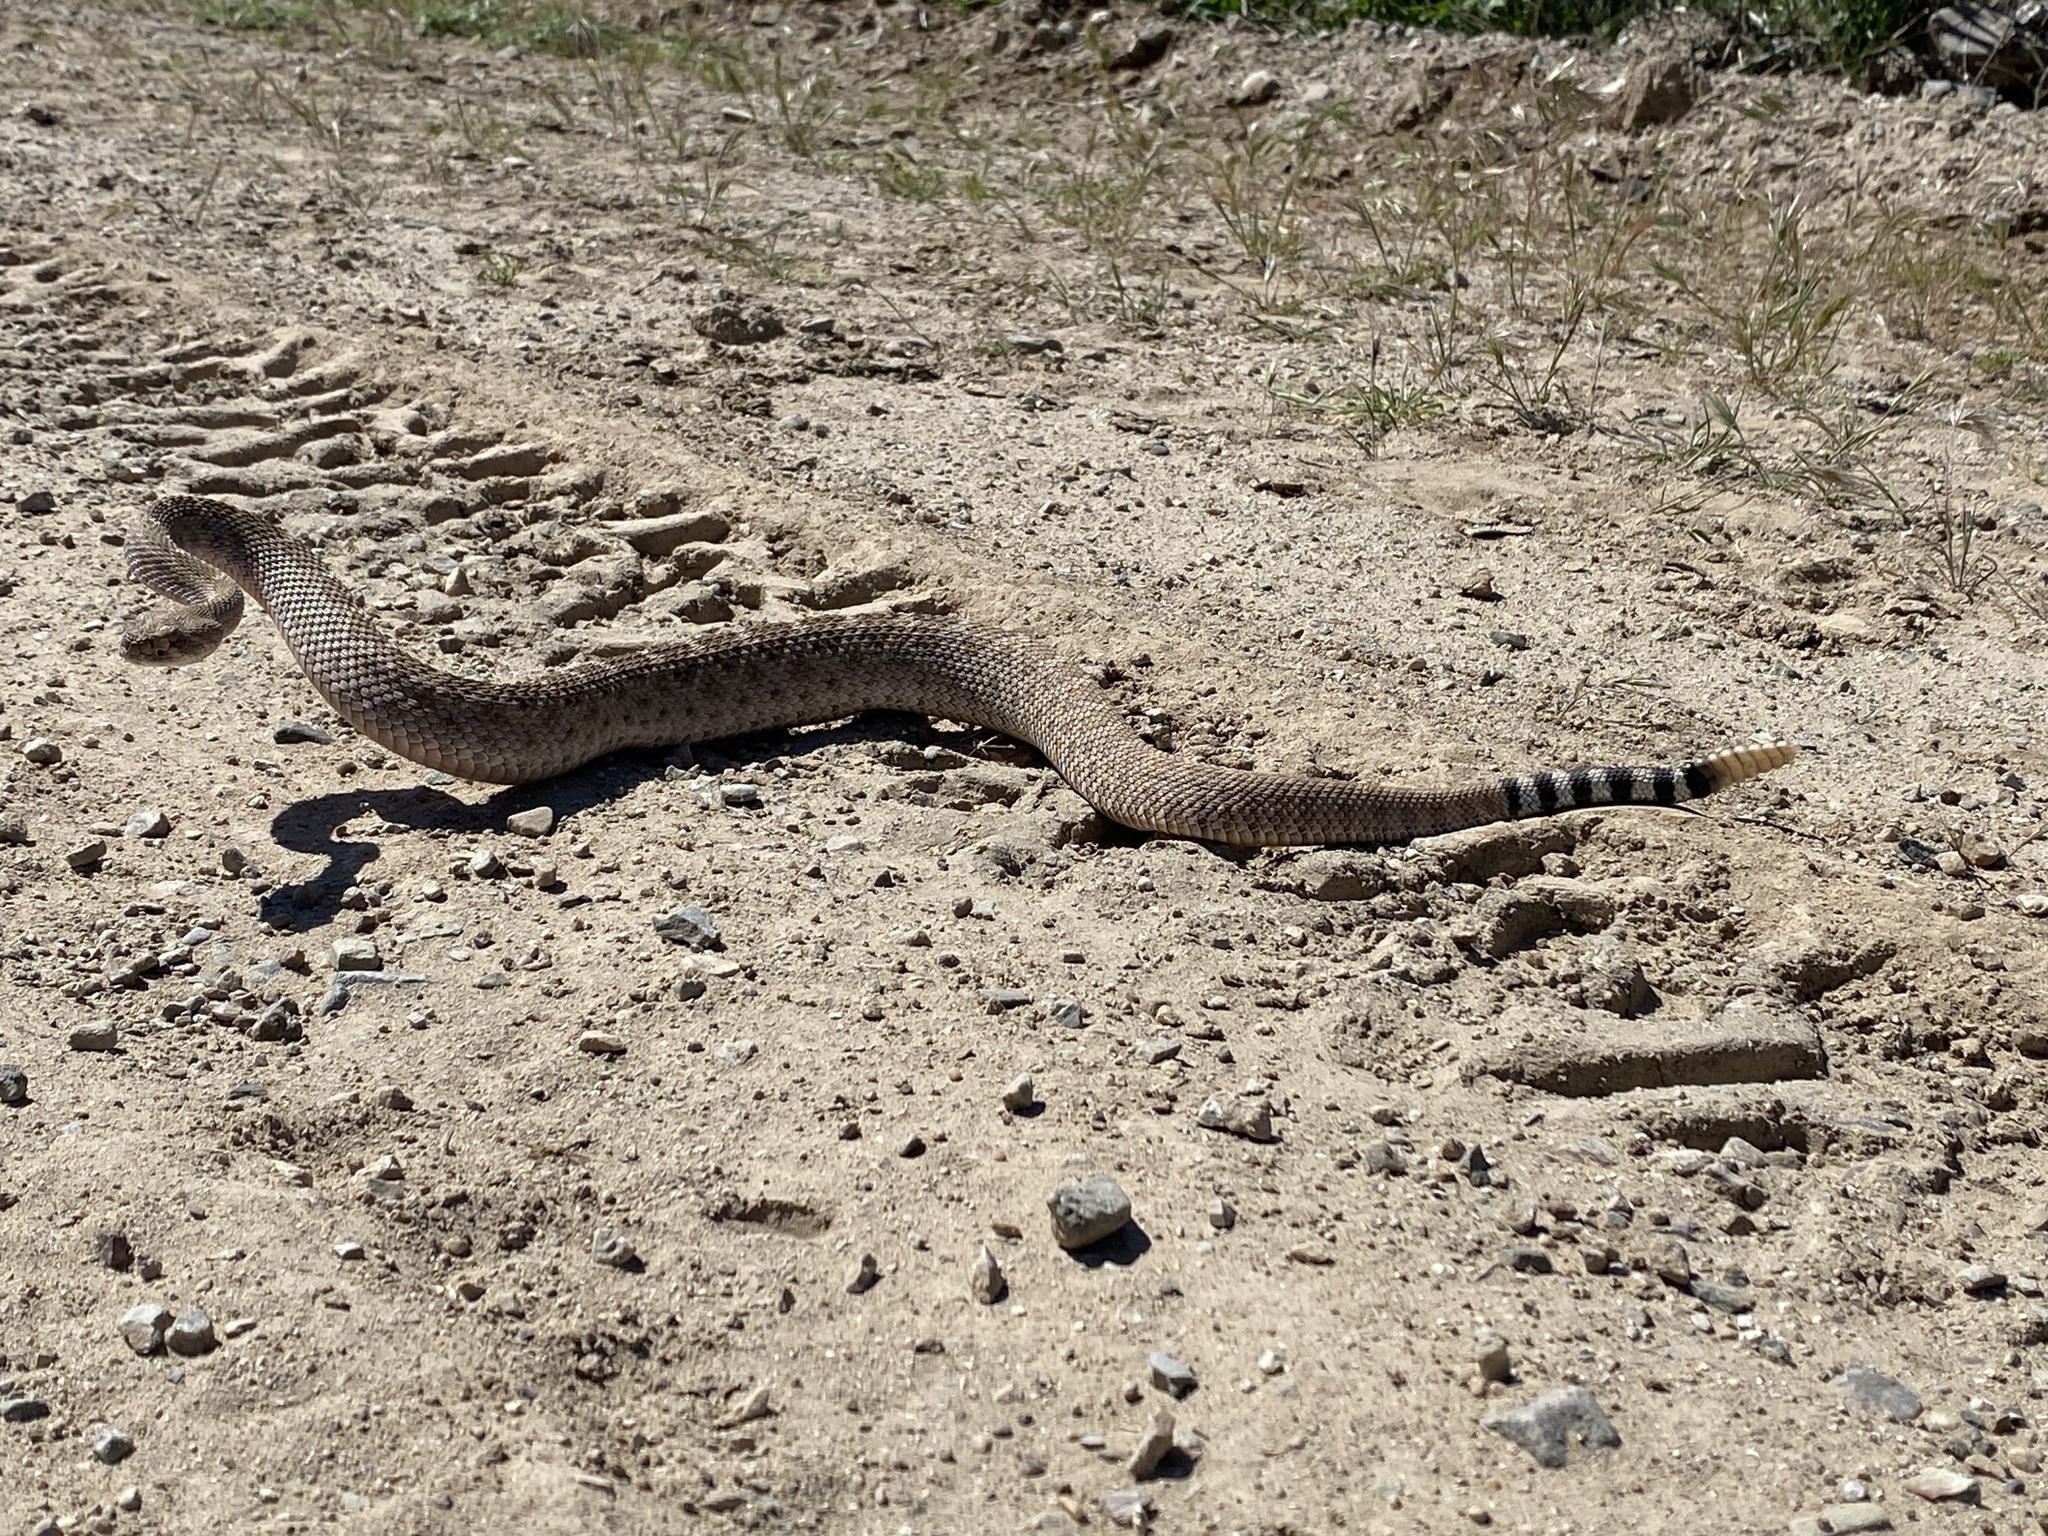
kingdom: Animalia
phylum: Chordata
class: Squamata
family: Viperidae
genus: Crotalus
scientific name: Crotalus atrox
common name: Western diamond-backed rattlesnake
